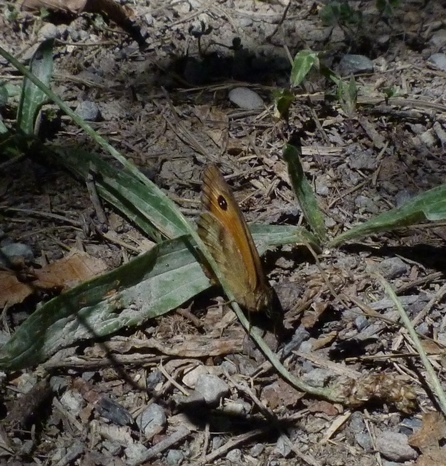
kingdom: Animalia
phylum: Arthropoda
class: Insecta
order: Lepidoptera
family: Nymphalidae
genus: Pyronia
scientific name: Pyronia tithonus
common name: Gatekeeper
